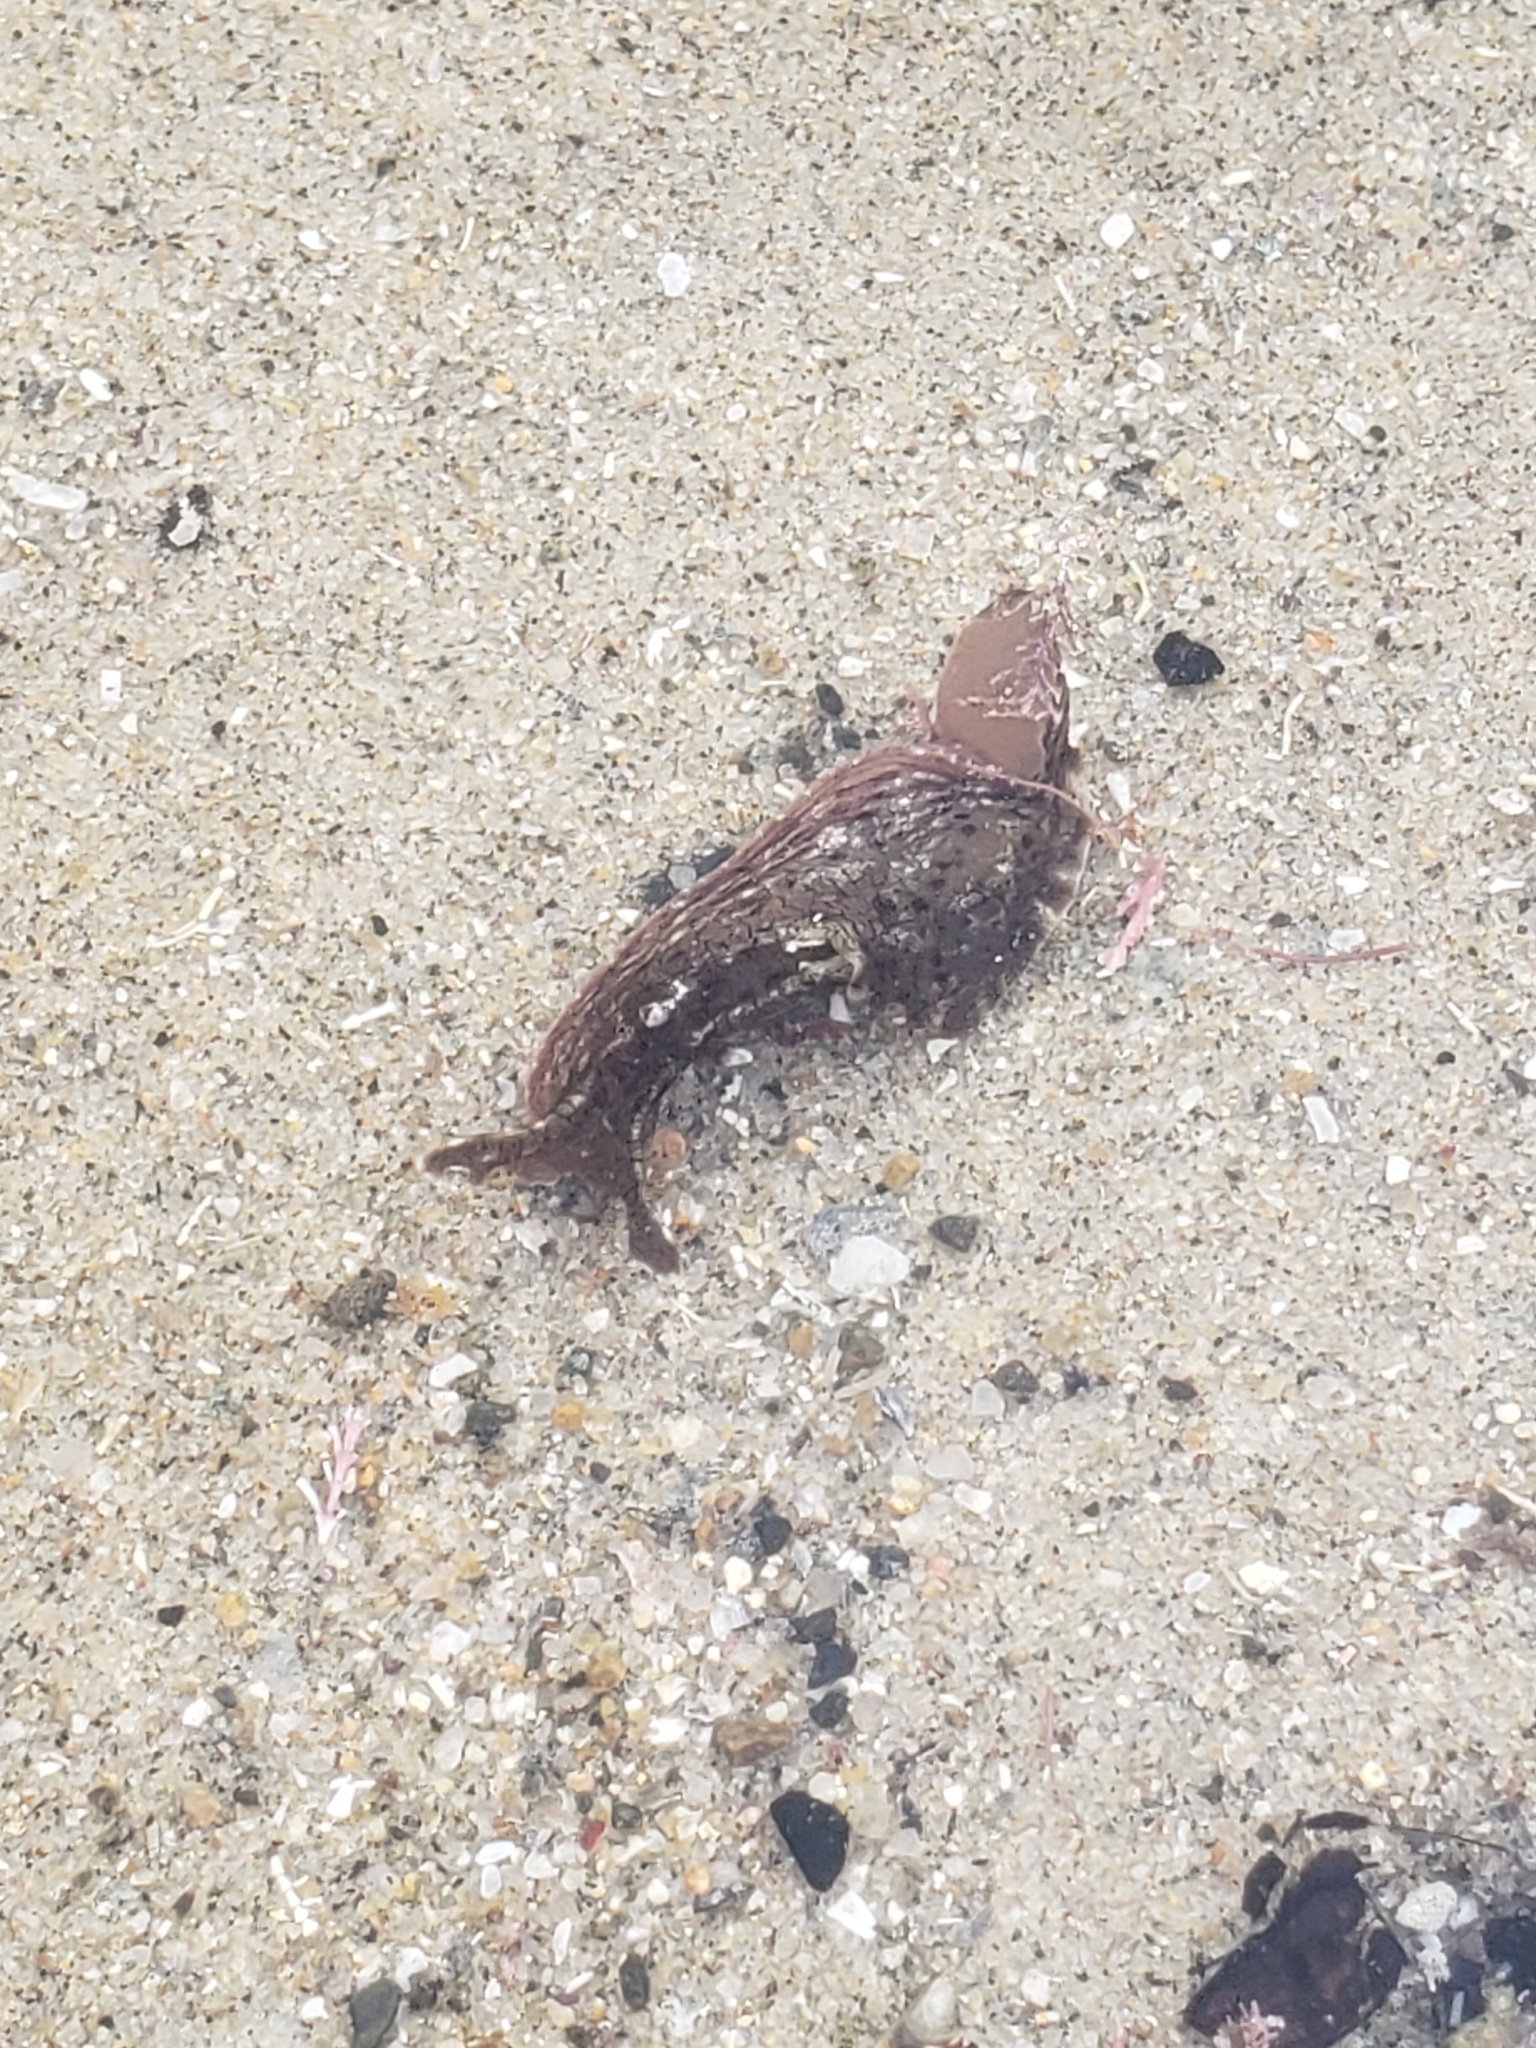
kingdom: Animalia
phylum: Mollusca
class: Gastropoda
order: Aplysiida
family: Aplysiidae
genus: Aplysia
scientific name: Aplysia californica
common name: California seahare
